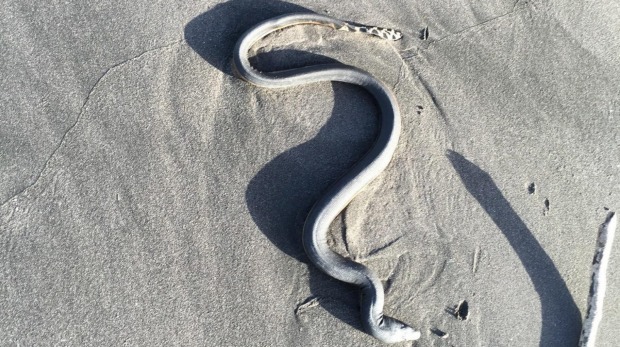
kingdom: Animalia
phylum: Chordata
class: Squamata
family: Elapidae
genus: Hydrophis
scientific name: Hydrophis platurus
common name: Pelagic sea snake
